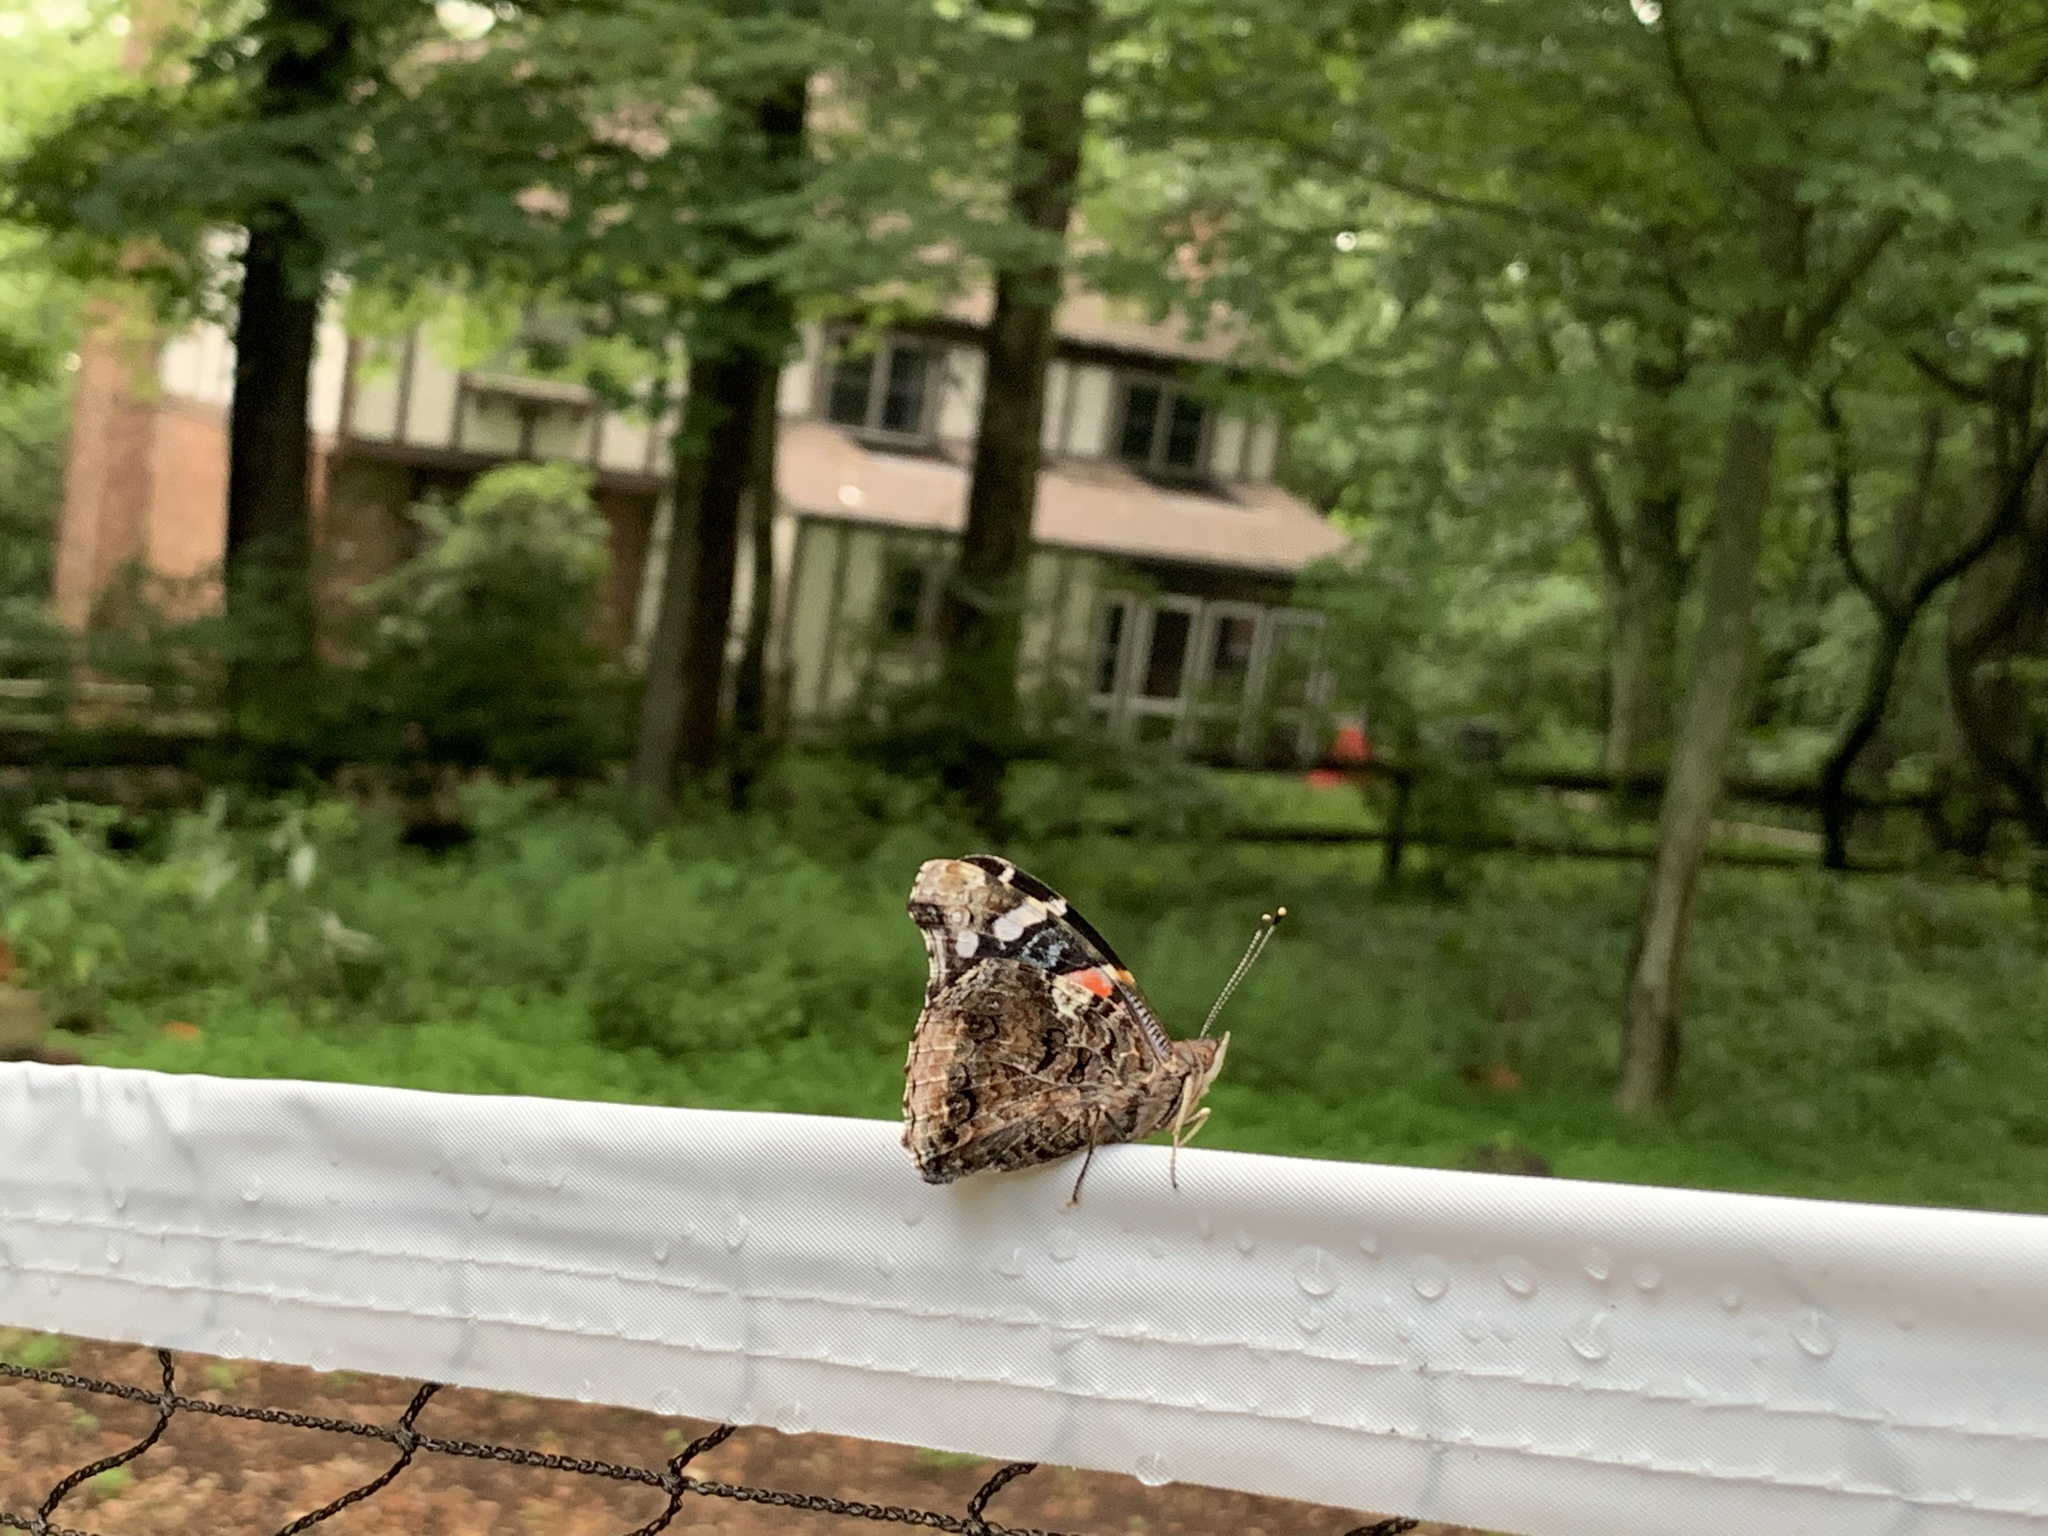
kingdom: Animalia
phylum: Arthropoda
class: Insecta
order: Lepidoptera
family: Nymphalidae
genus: Vanessa
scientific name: Vanessa atalanta
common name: Red admiral
